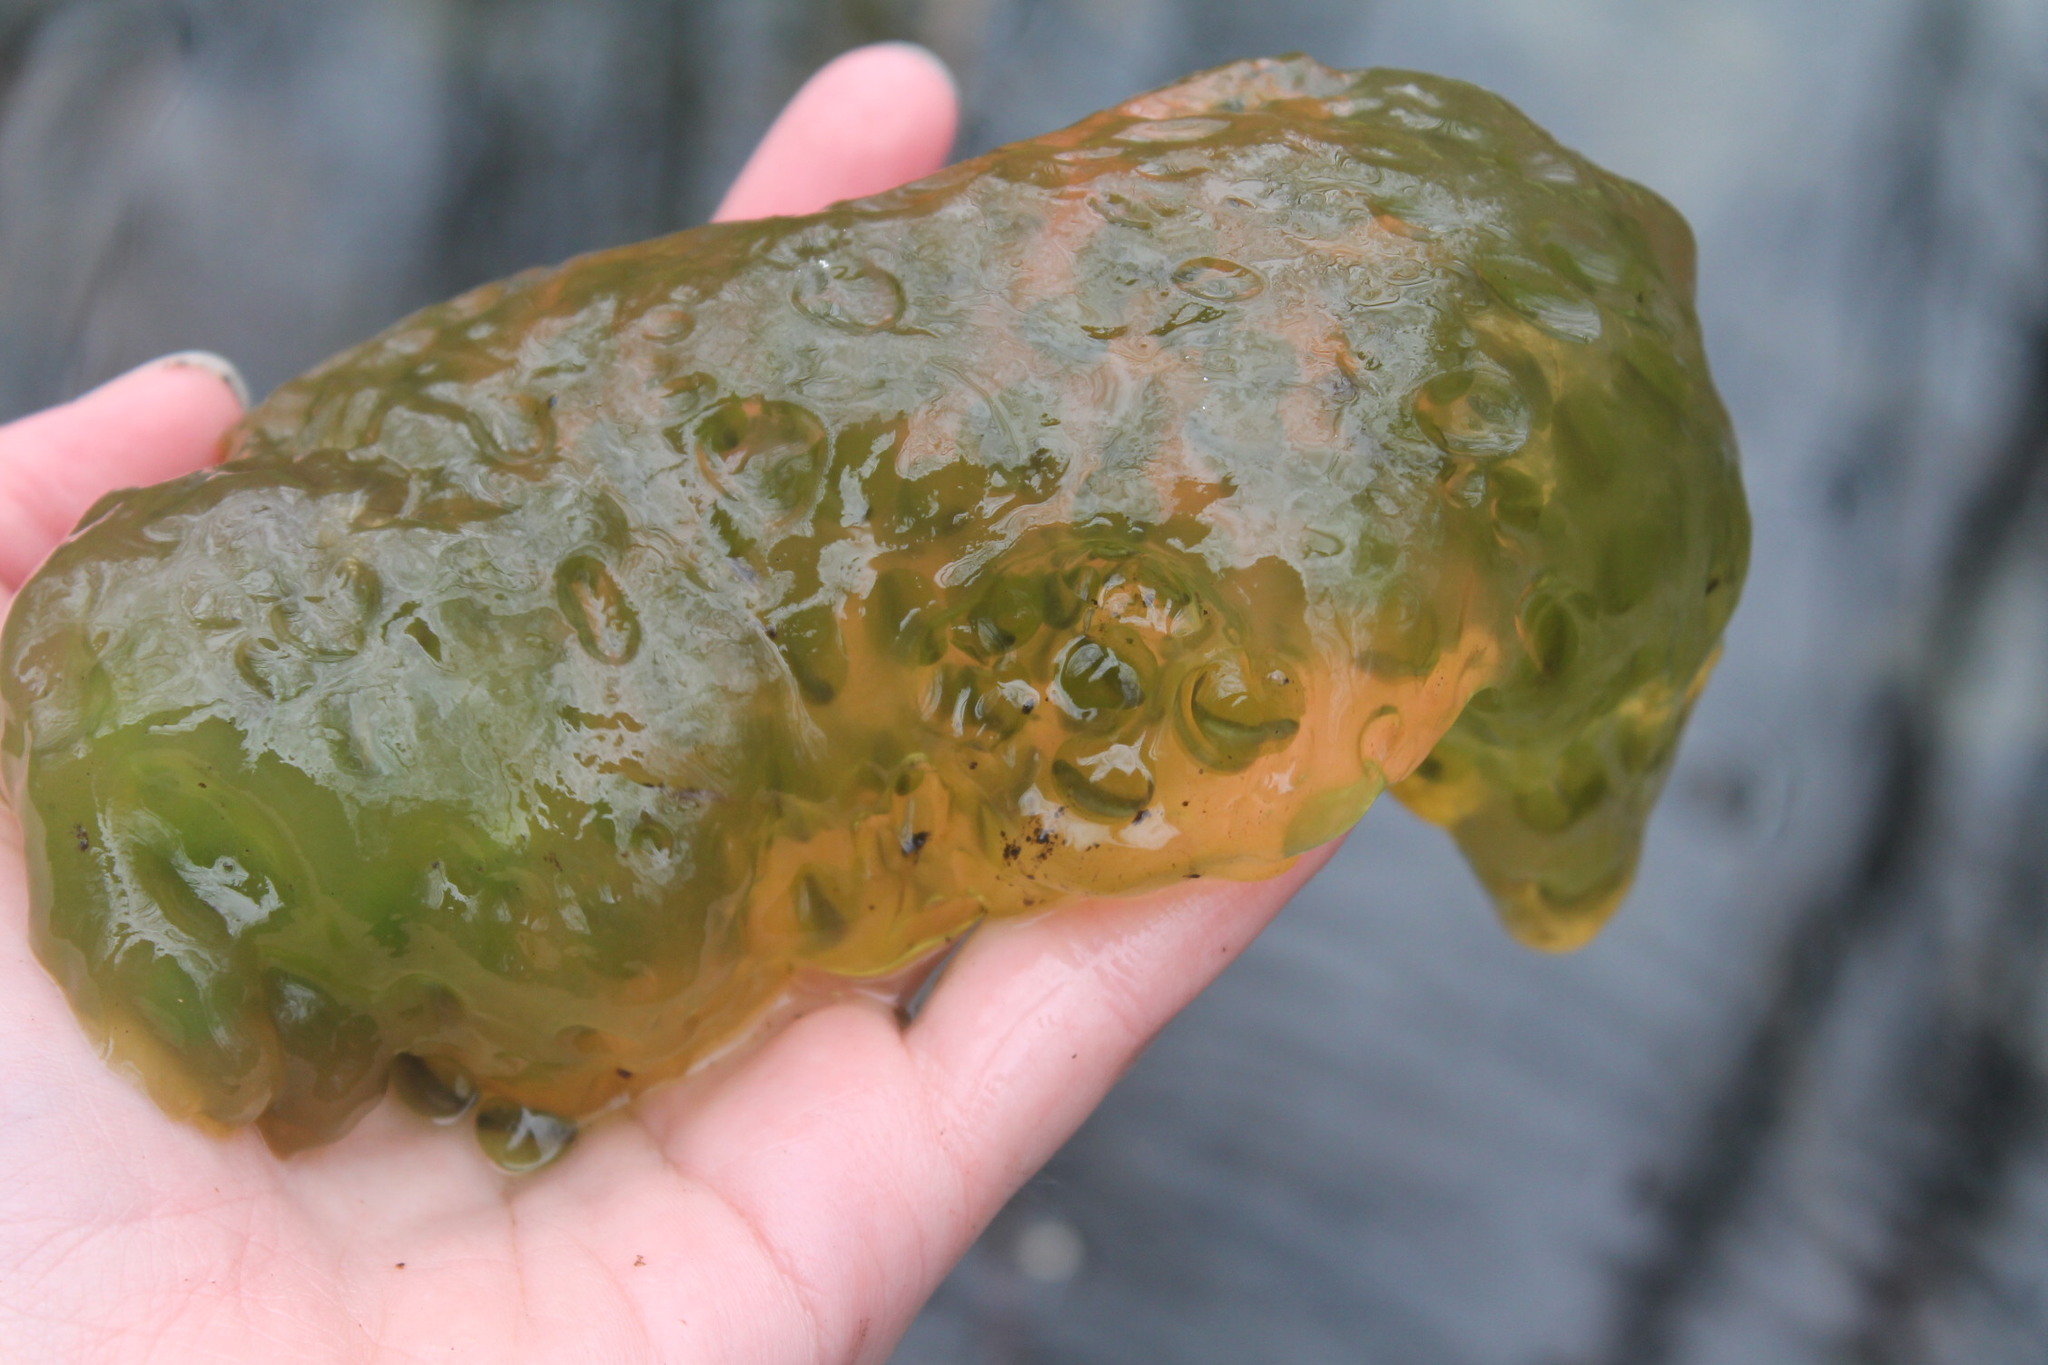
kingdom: Animalia
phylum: Chordata
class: Amphibia
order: Caudata
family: Ambystomatidae
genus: Ambystoma
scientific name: Ambystoma maculatum
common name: Spotted salamander
